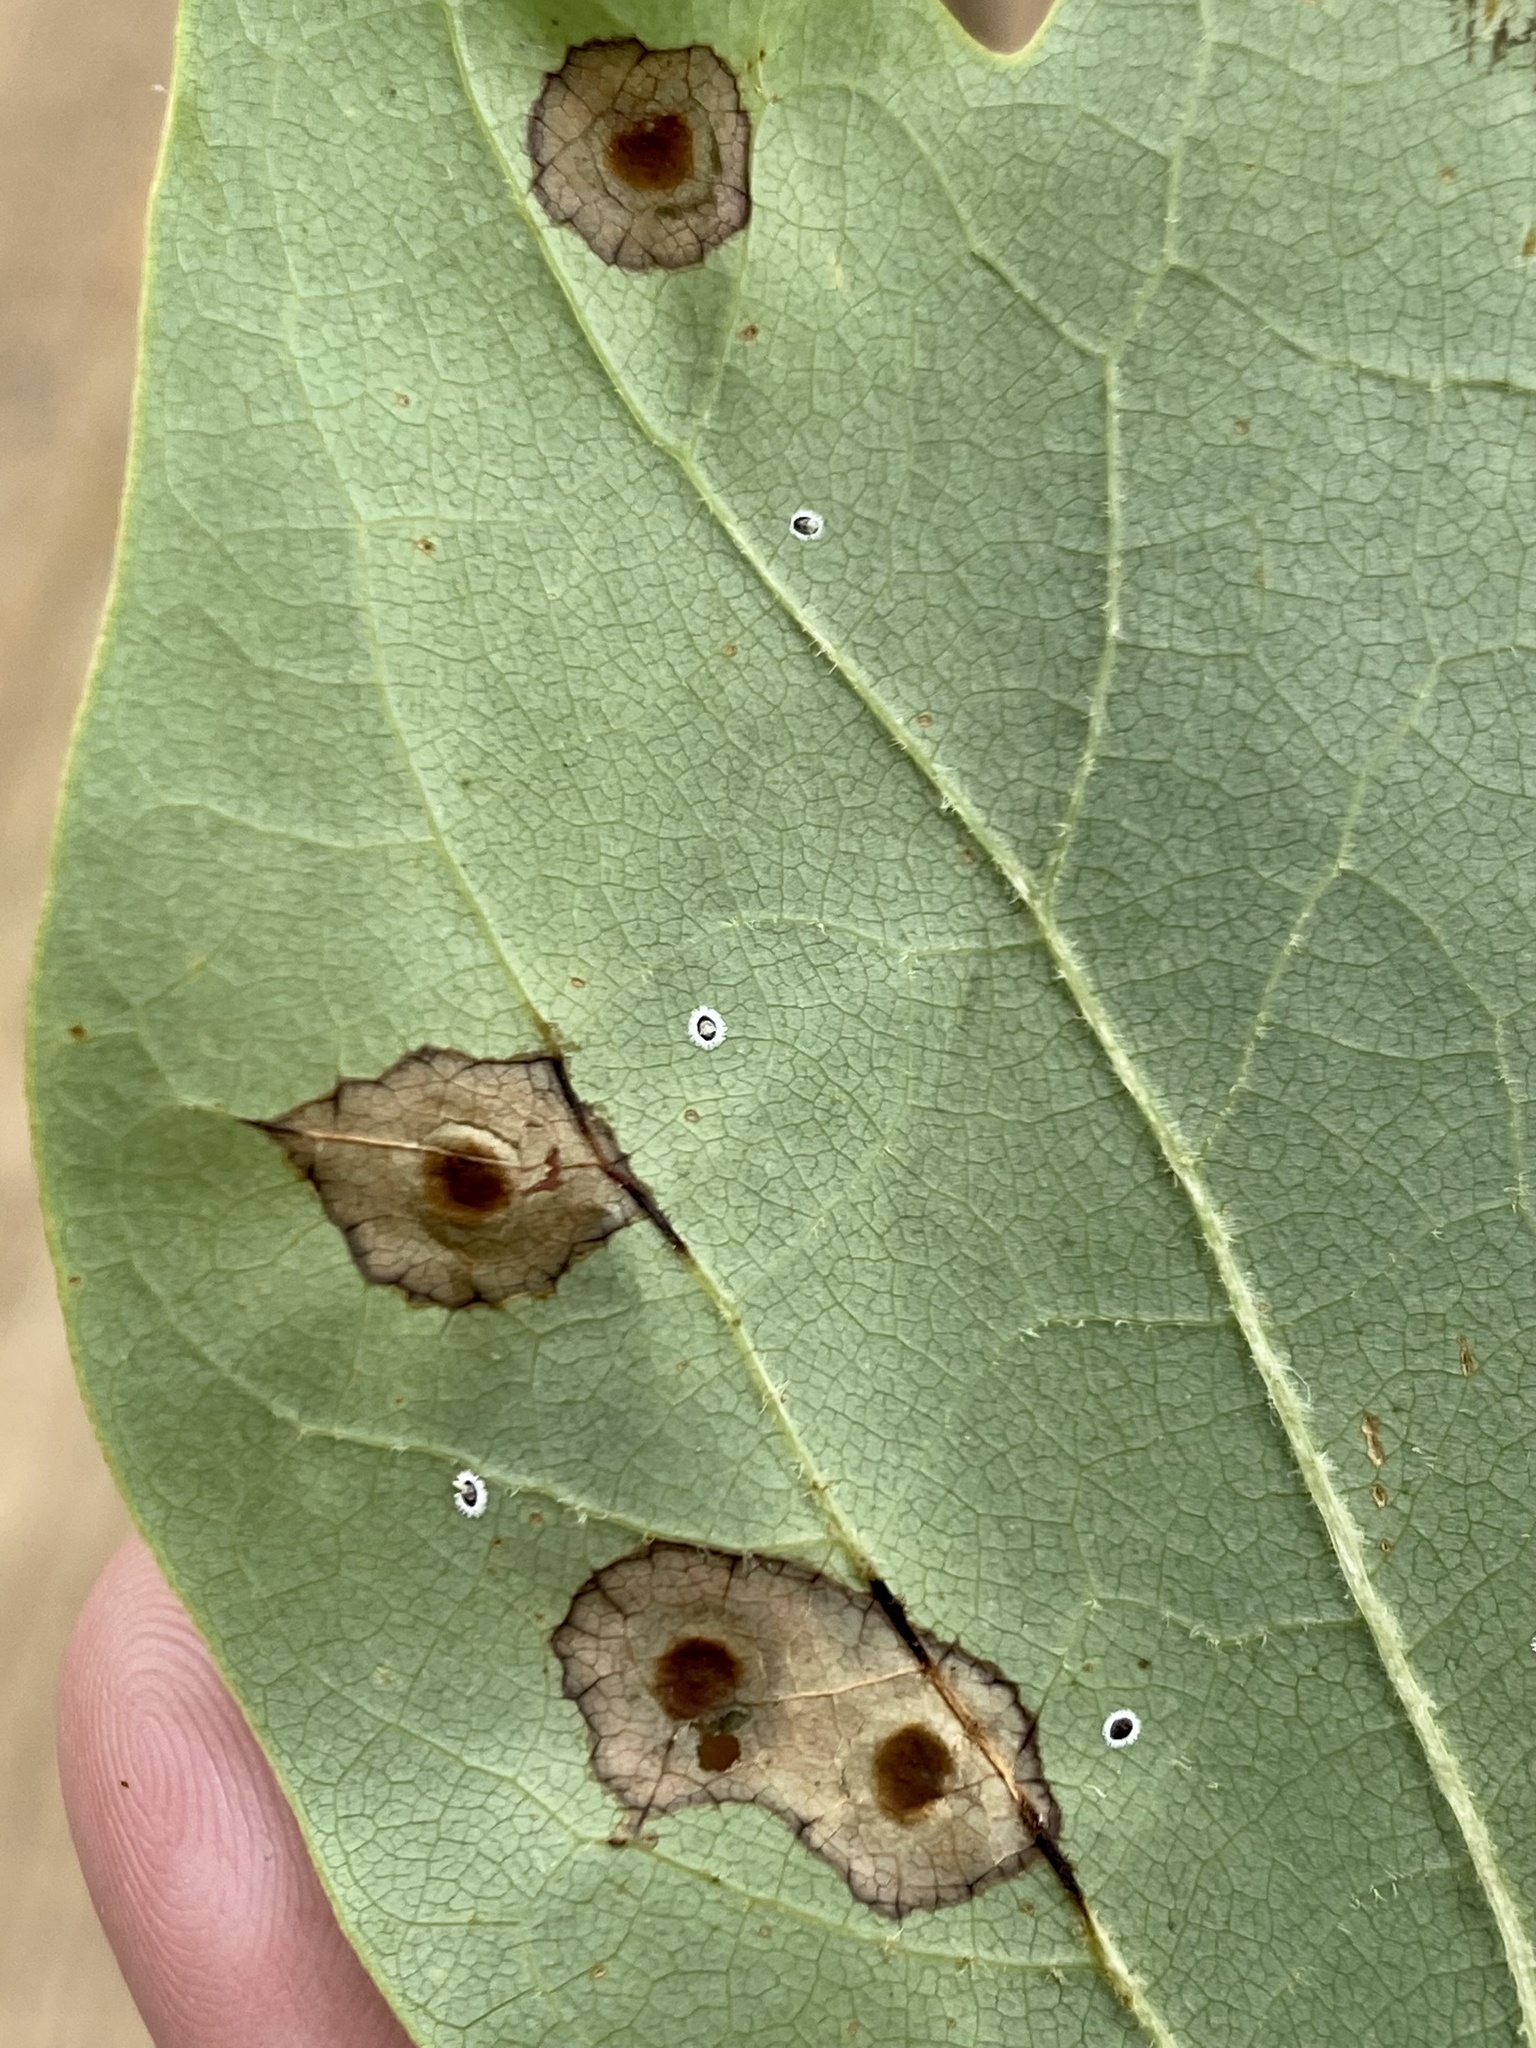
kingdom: Animalia
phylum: Arthropoda
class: Insecta
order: Diptera
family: Cecidomyiidae
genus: Resseliella
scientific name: Resseliella liriodendri
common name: Tulip tree leaf spot gall midge
